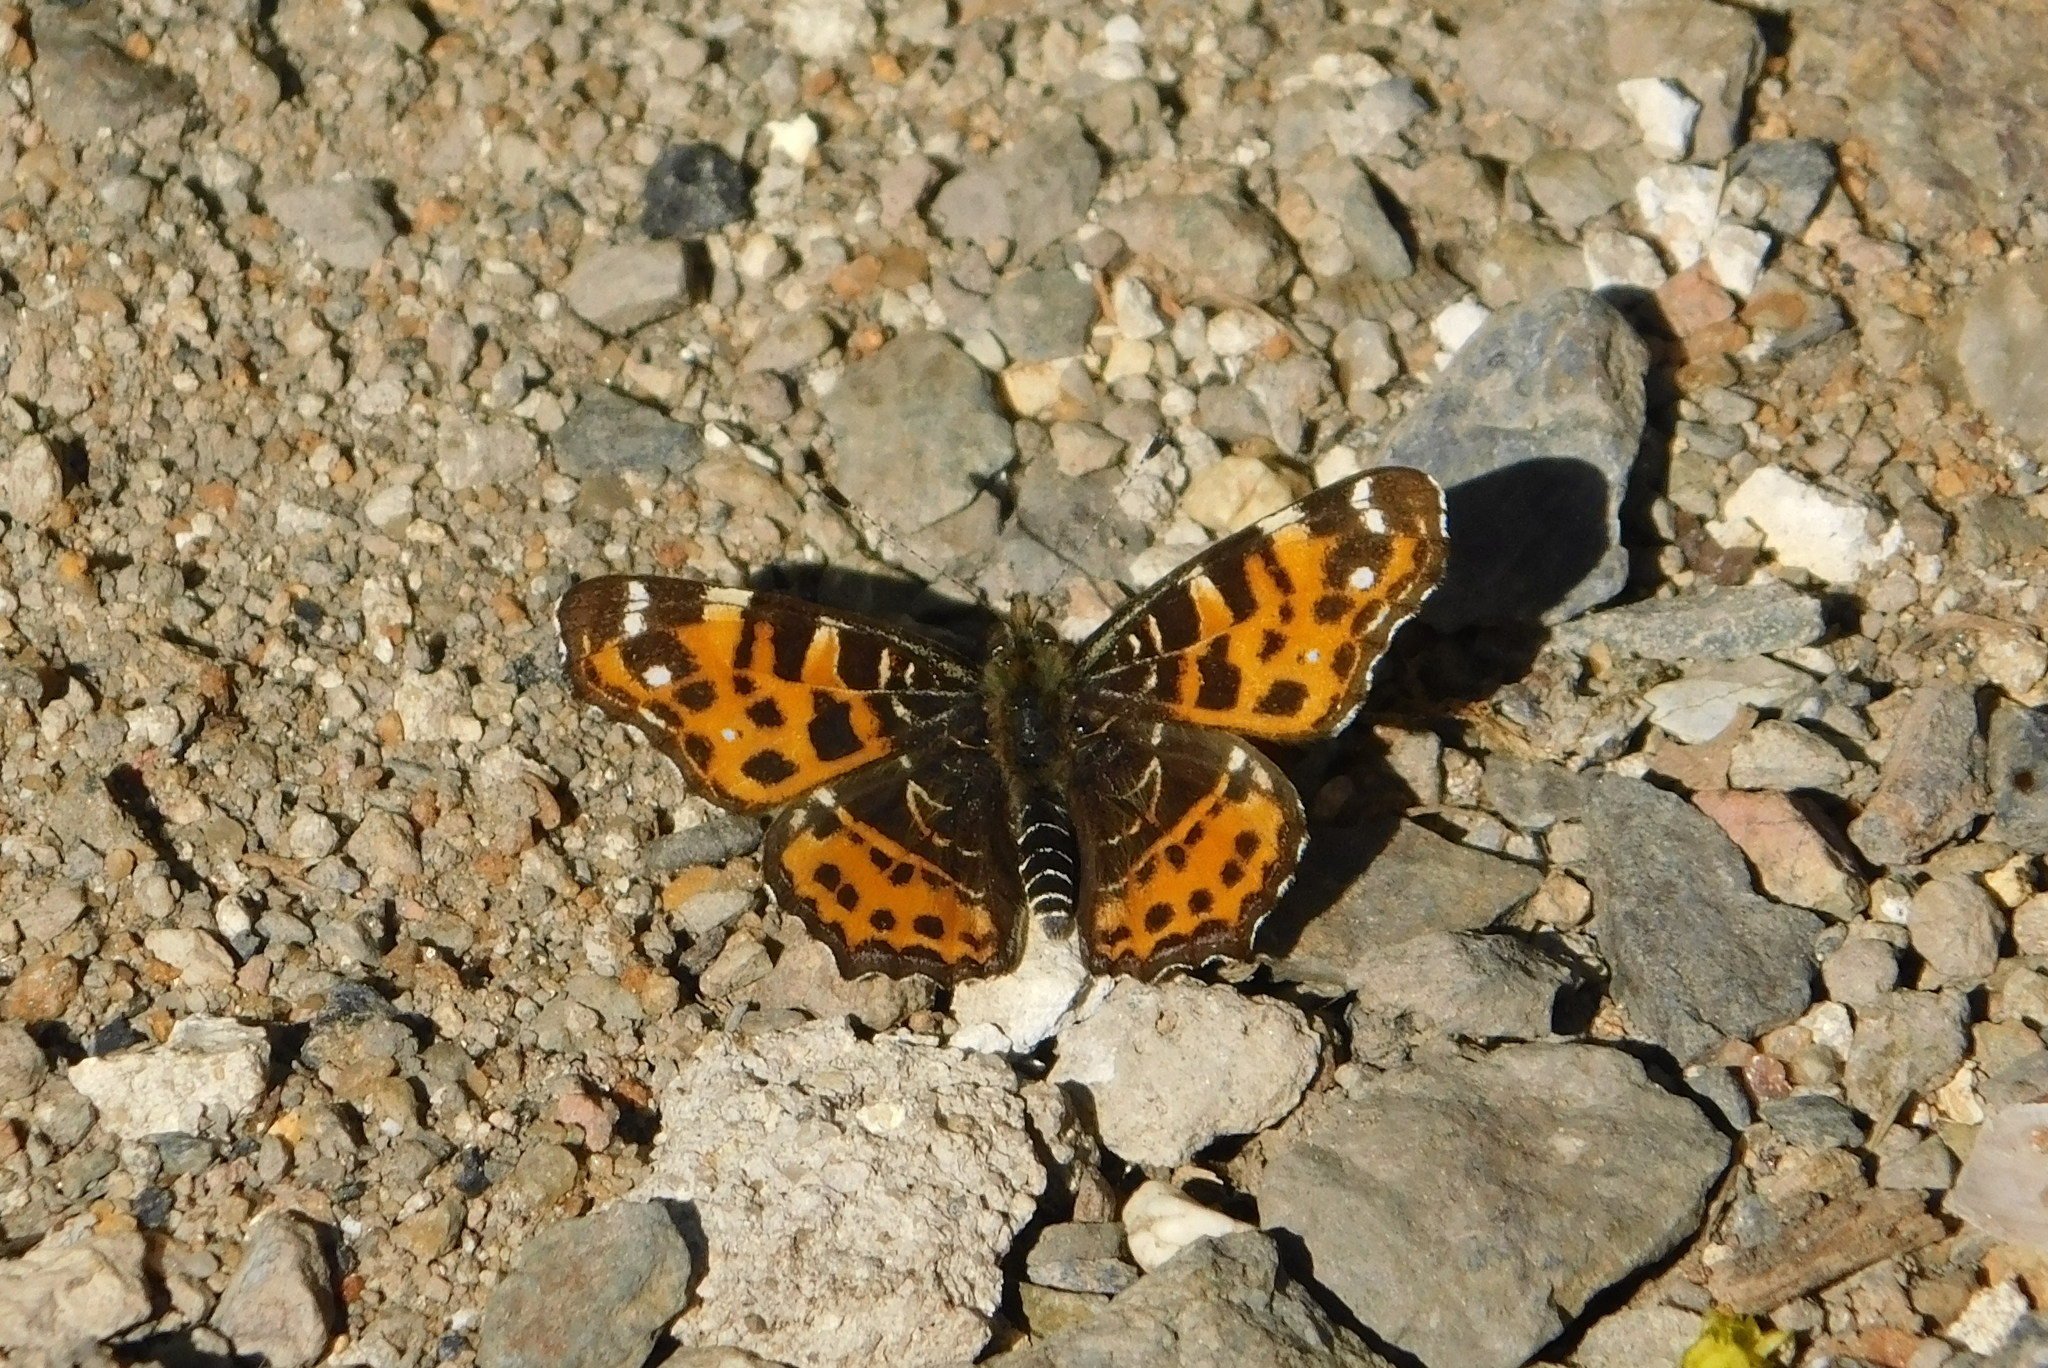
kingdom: Animalia
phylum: Arthropoda
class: Insecta
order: Lepidoptera
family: Nymphalidae
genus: Araschnia
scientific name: Araschnia levana
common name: Map butterfly
